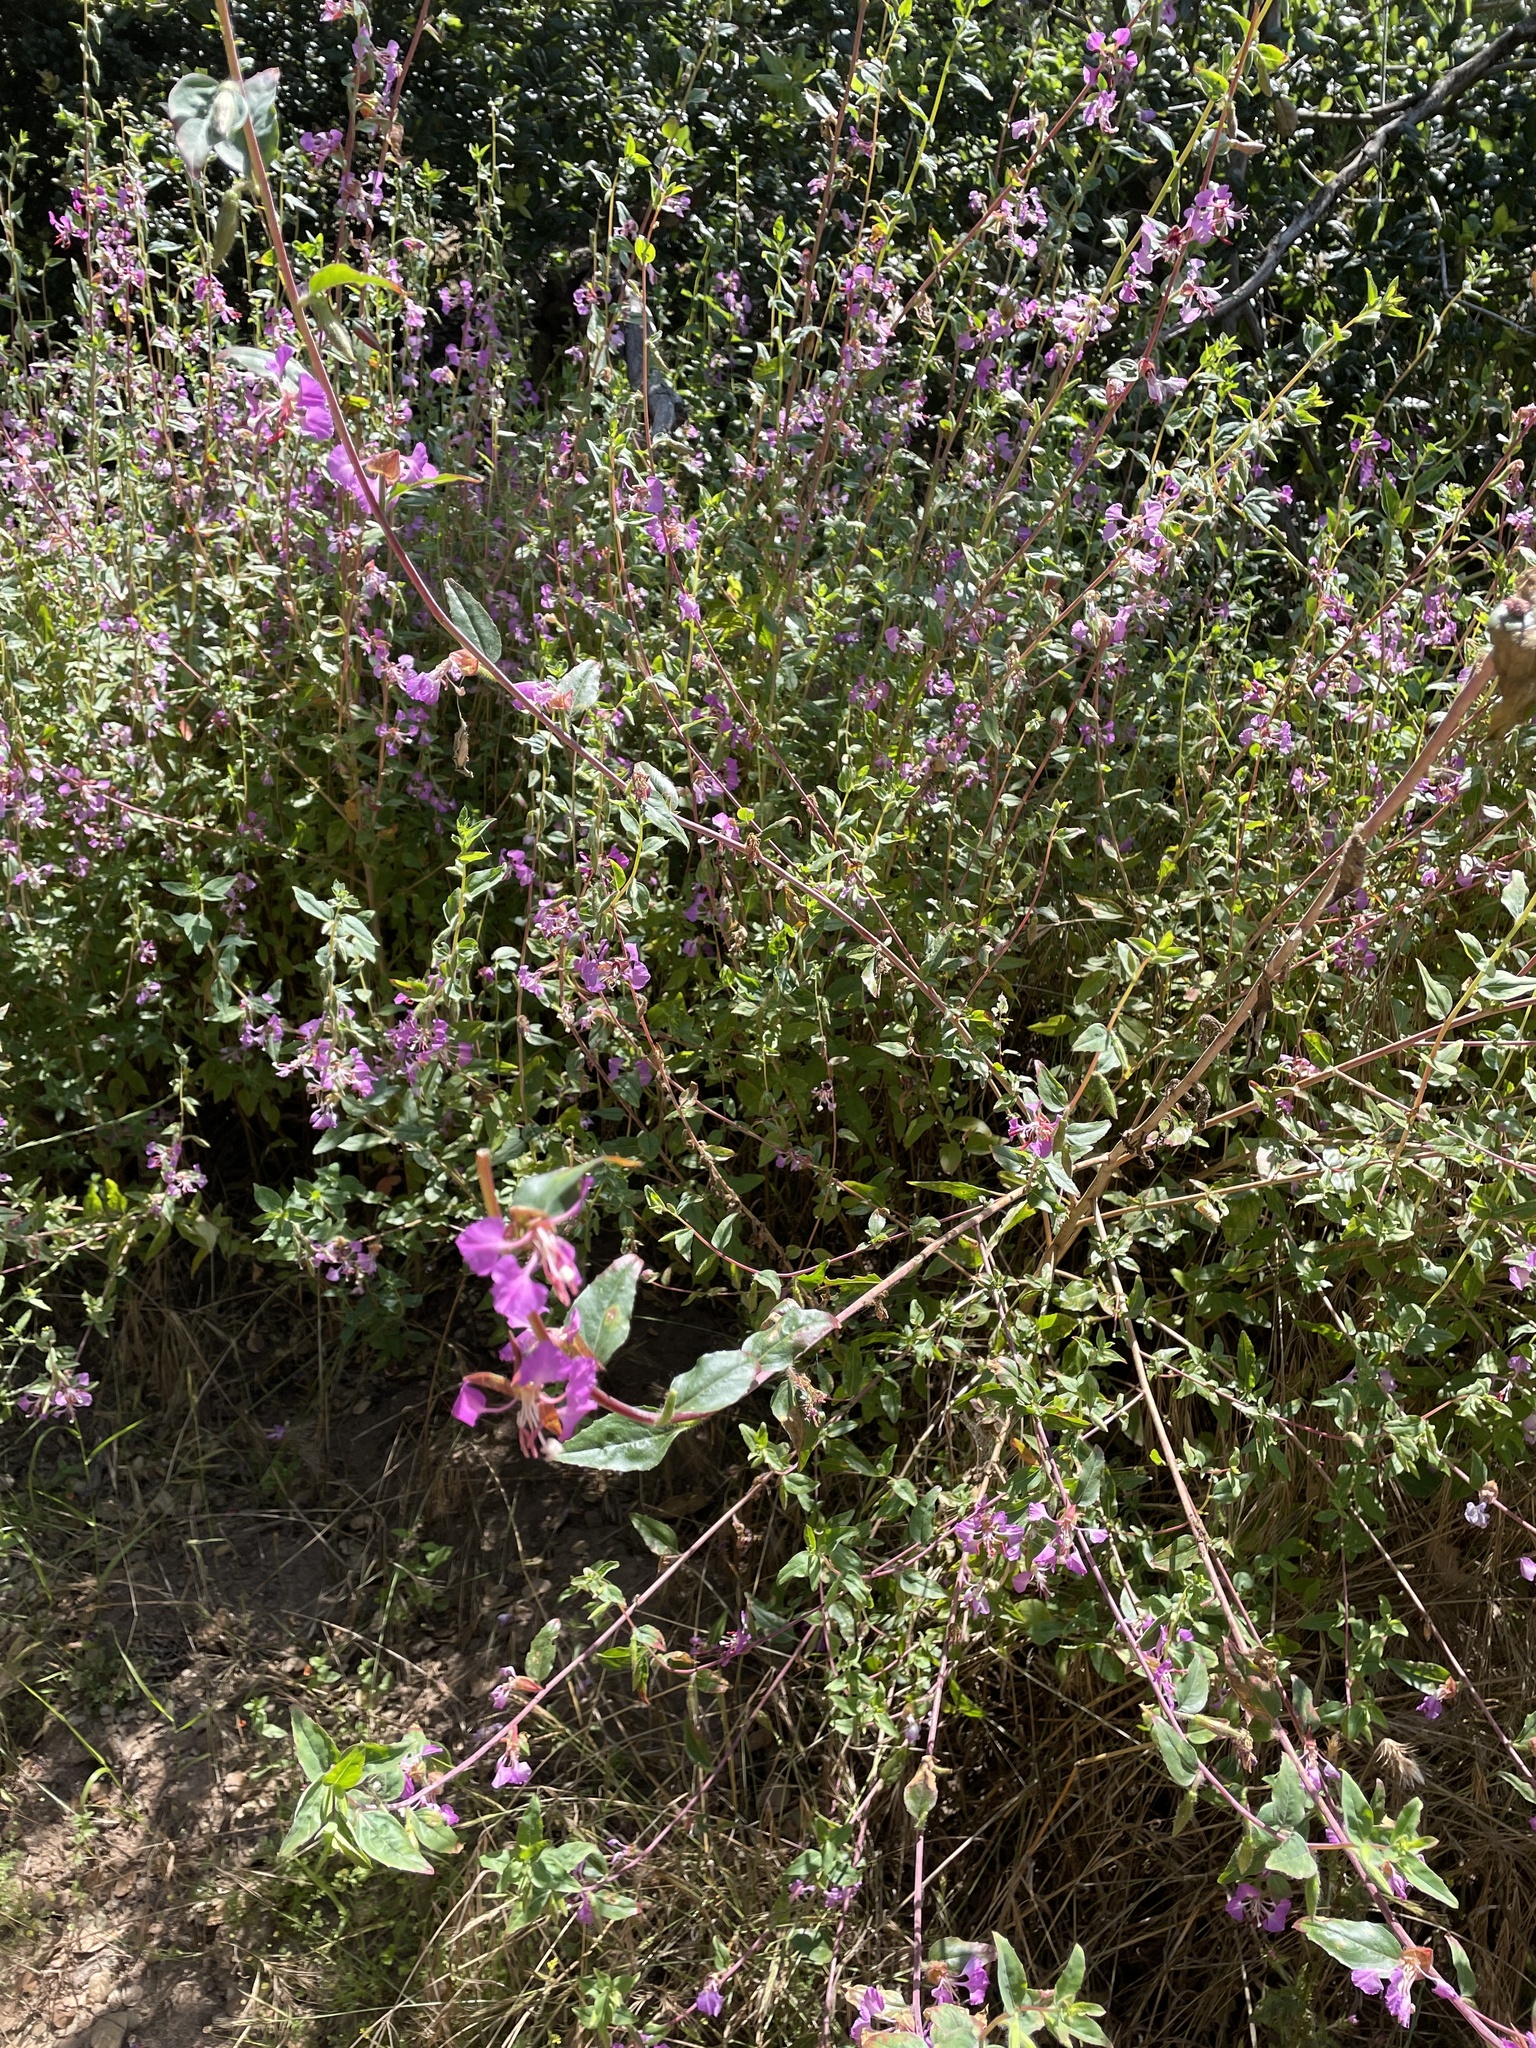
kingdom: Plantae
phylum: Tracheophyta
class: Magnoliopsida
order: Myrtales
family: Onagraceae
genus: Clarkia
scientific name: Clarkia unguiculata
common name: Clarkia
